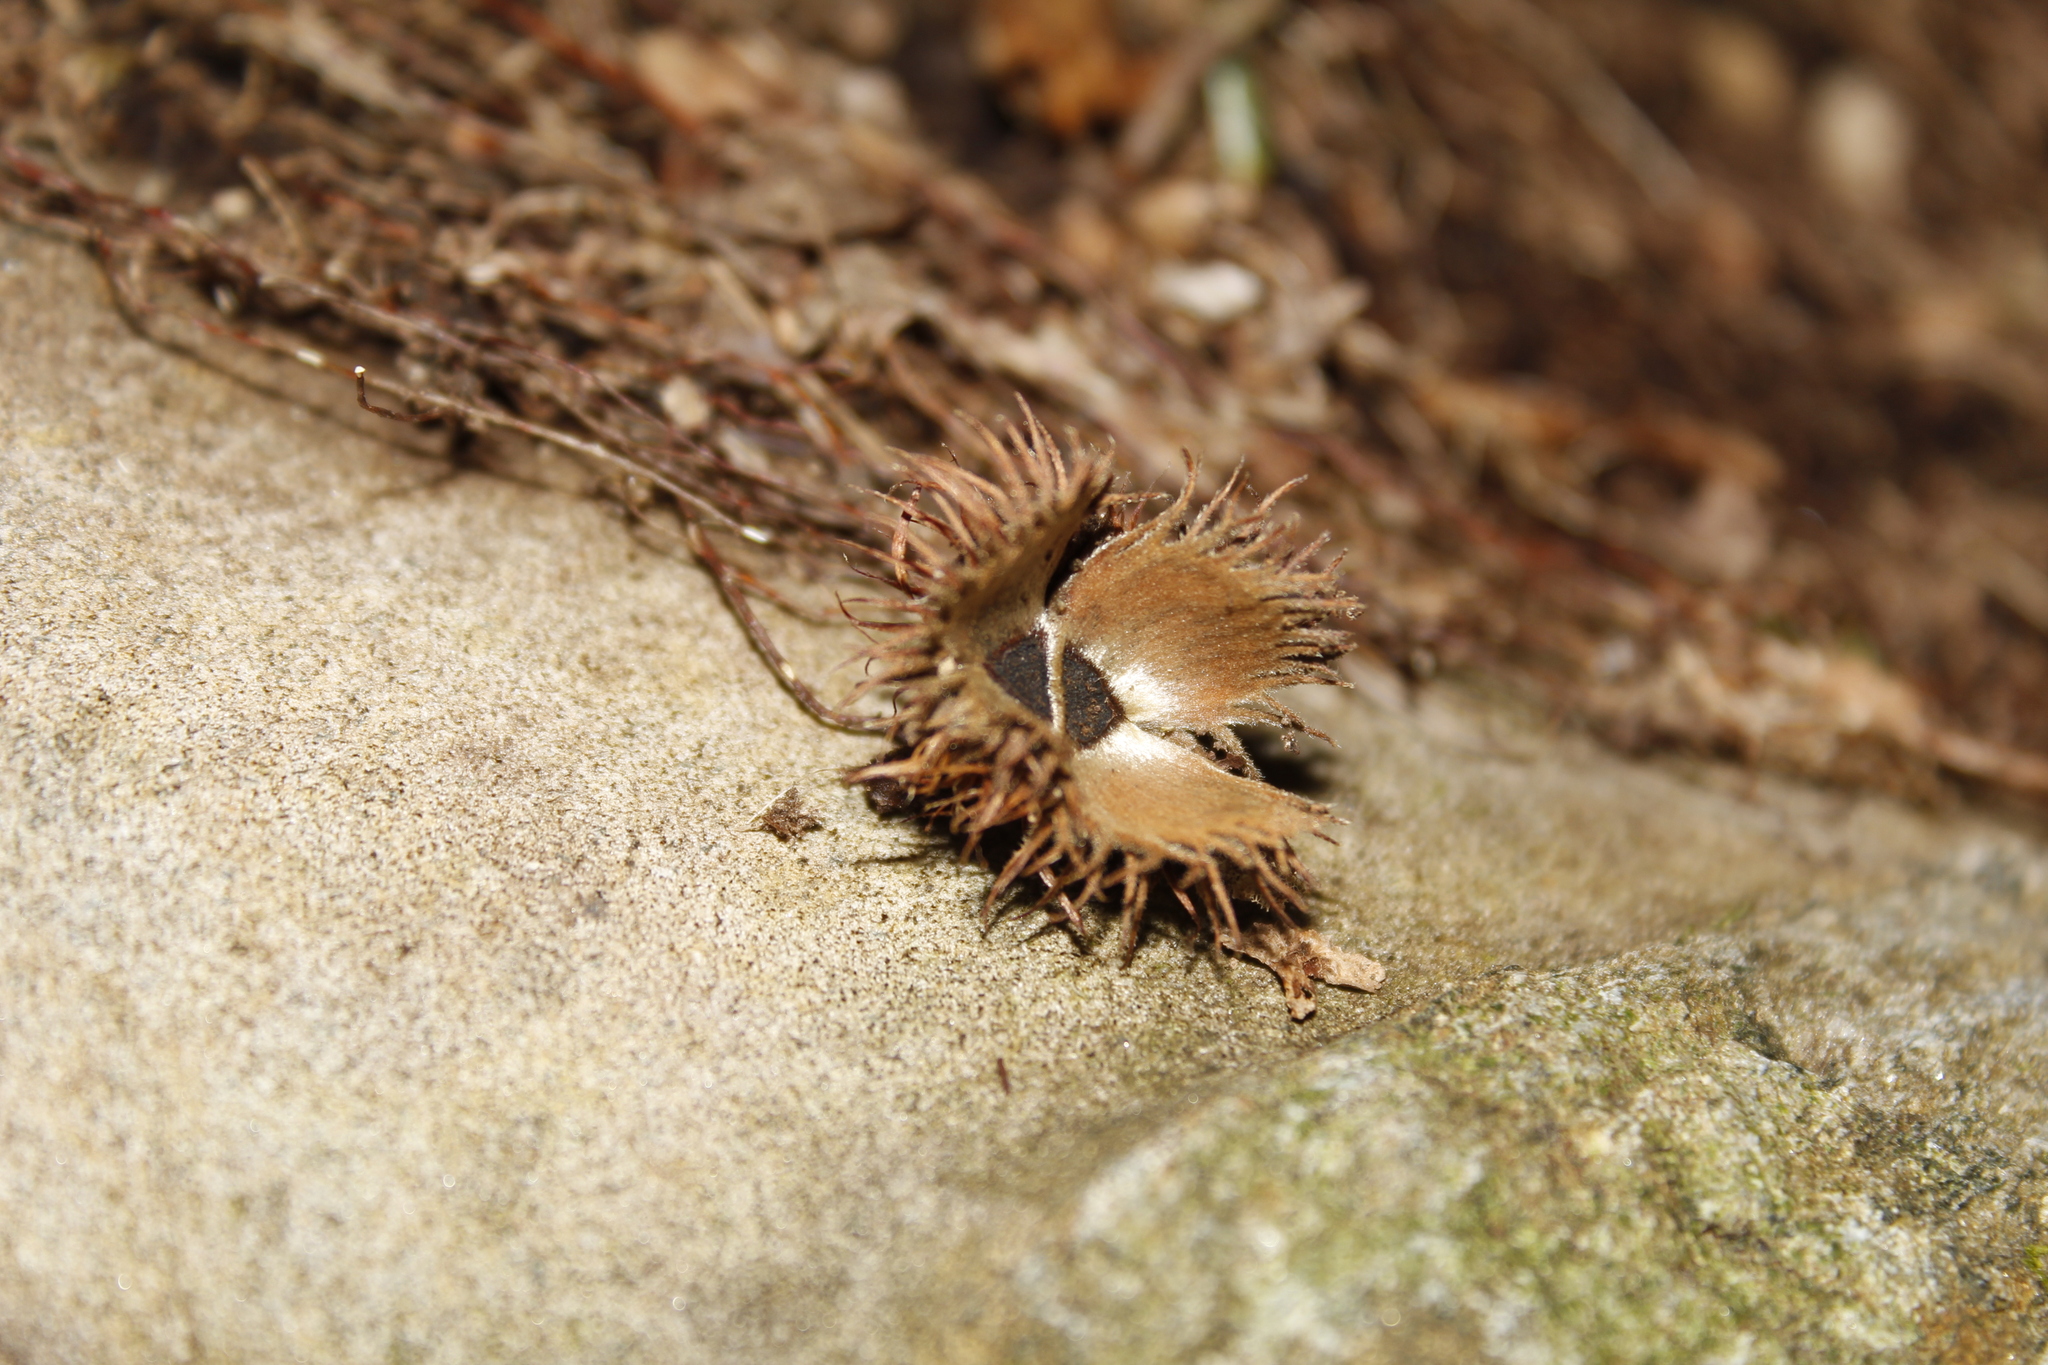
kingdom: Plantae
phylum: Tracheophyta
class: Magnoliopsida
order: Fagales
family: Fagaceae
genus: Fagus
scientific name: Fagus grandifolia
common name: American beech
